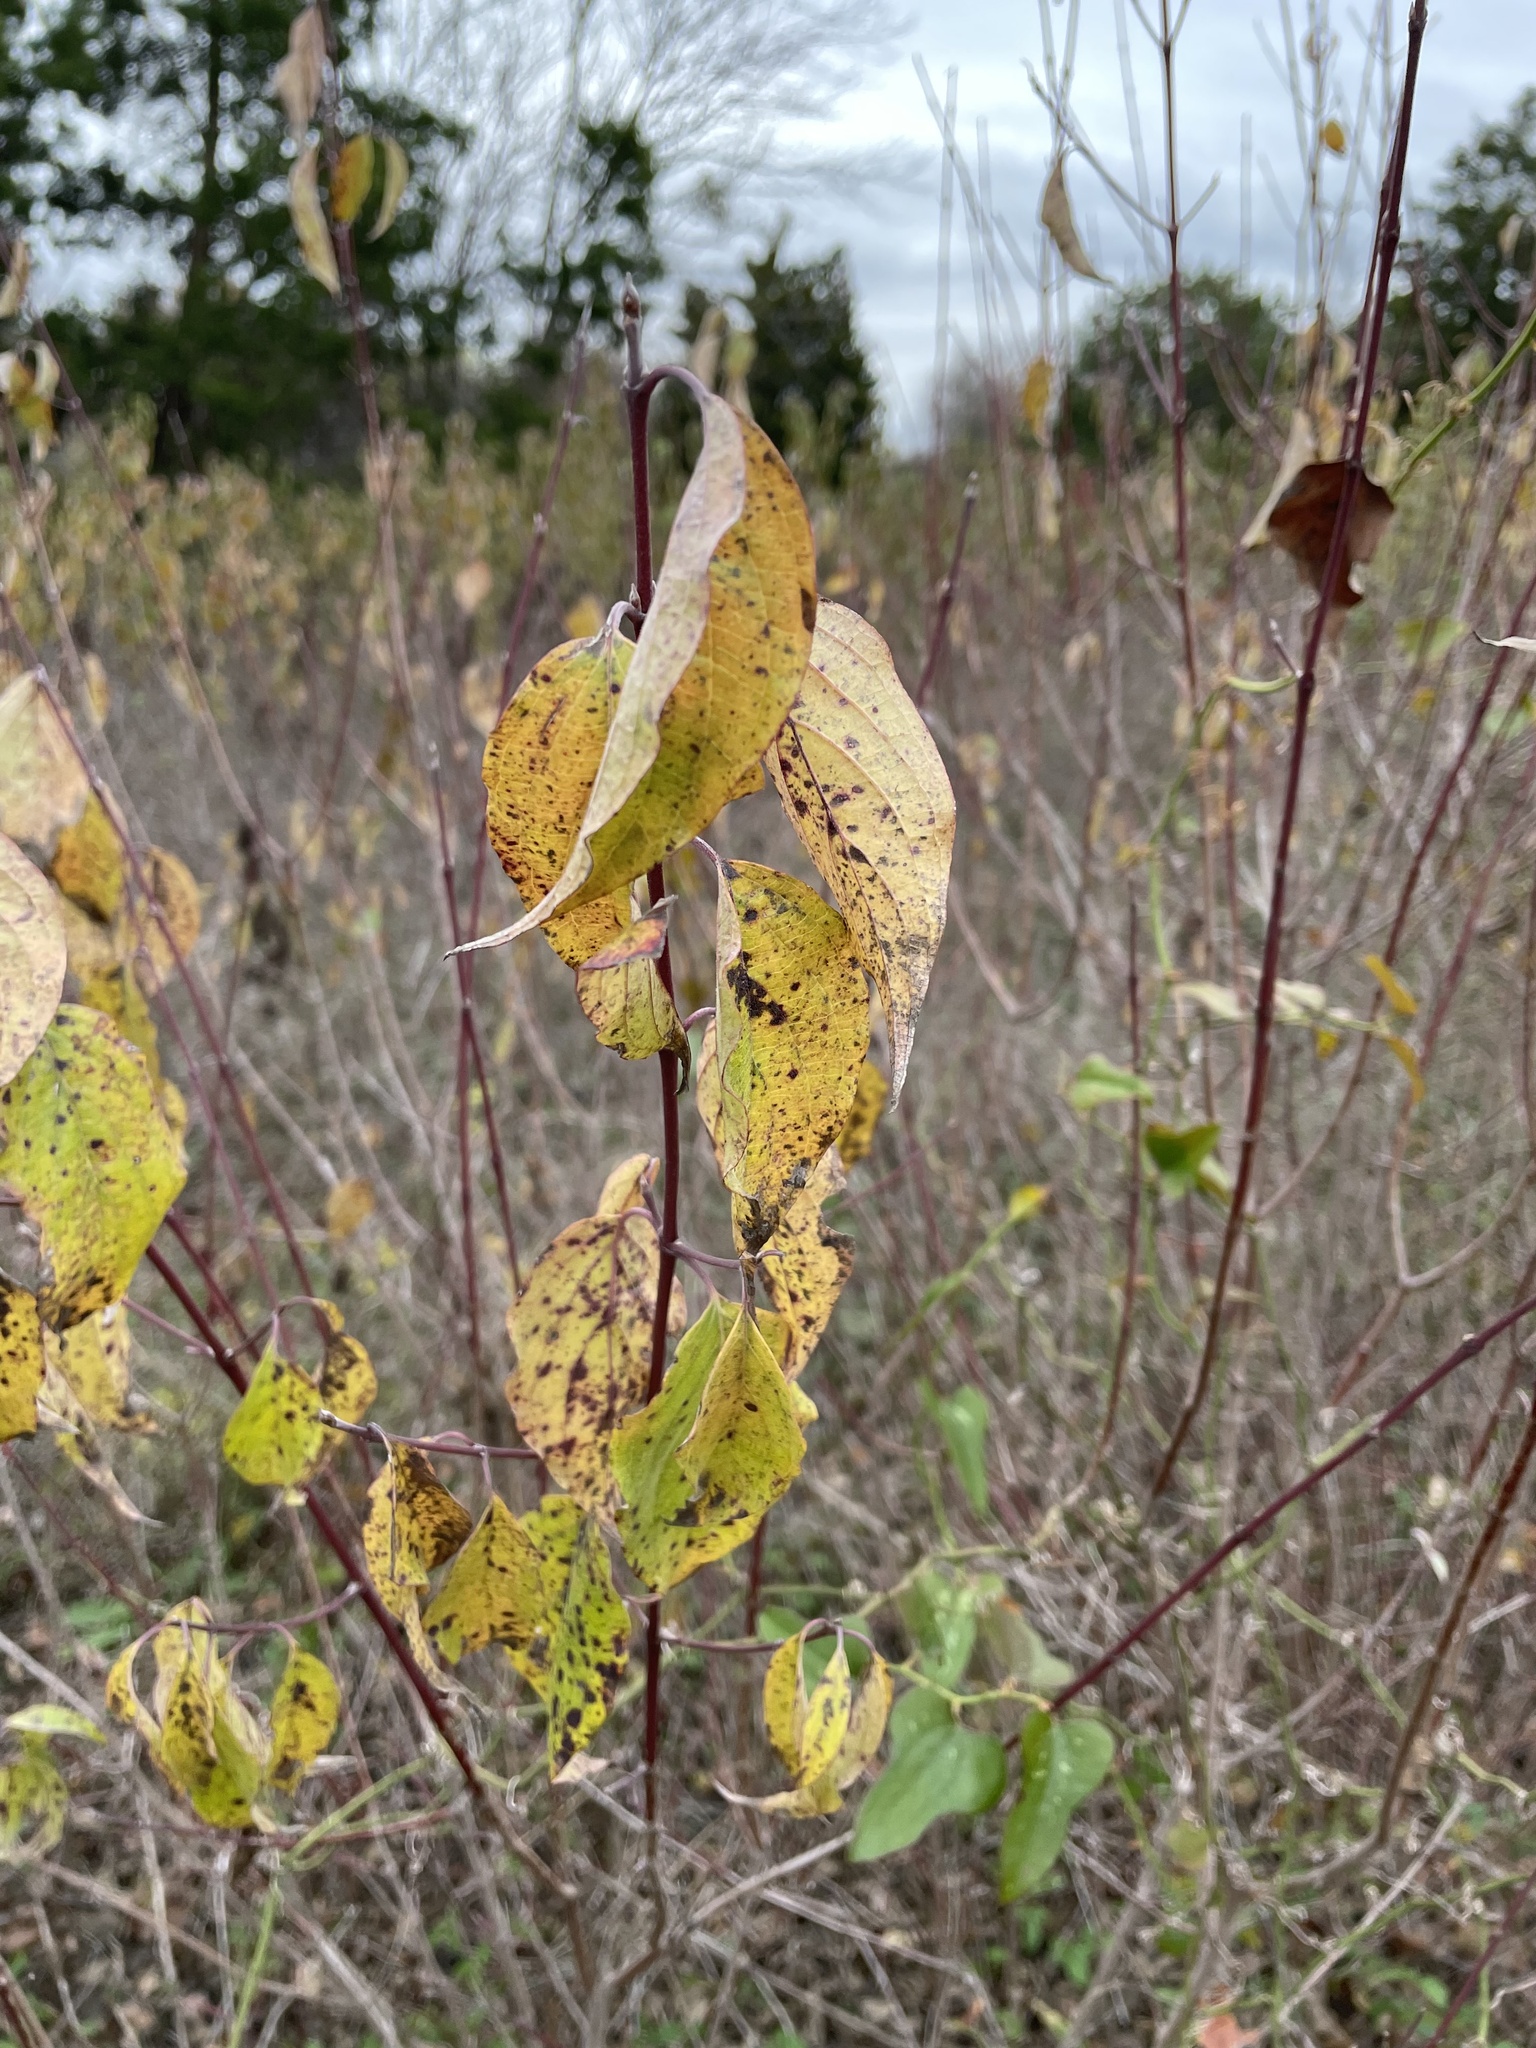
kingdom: Plantae
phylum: Tracheophyta
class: Magnoliopsida
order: Cornales
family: Cornaceae
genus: Cornus
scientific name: Cornus drummondii
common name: Rough-leaf dogwood
